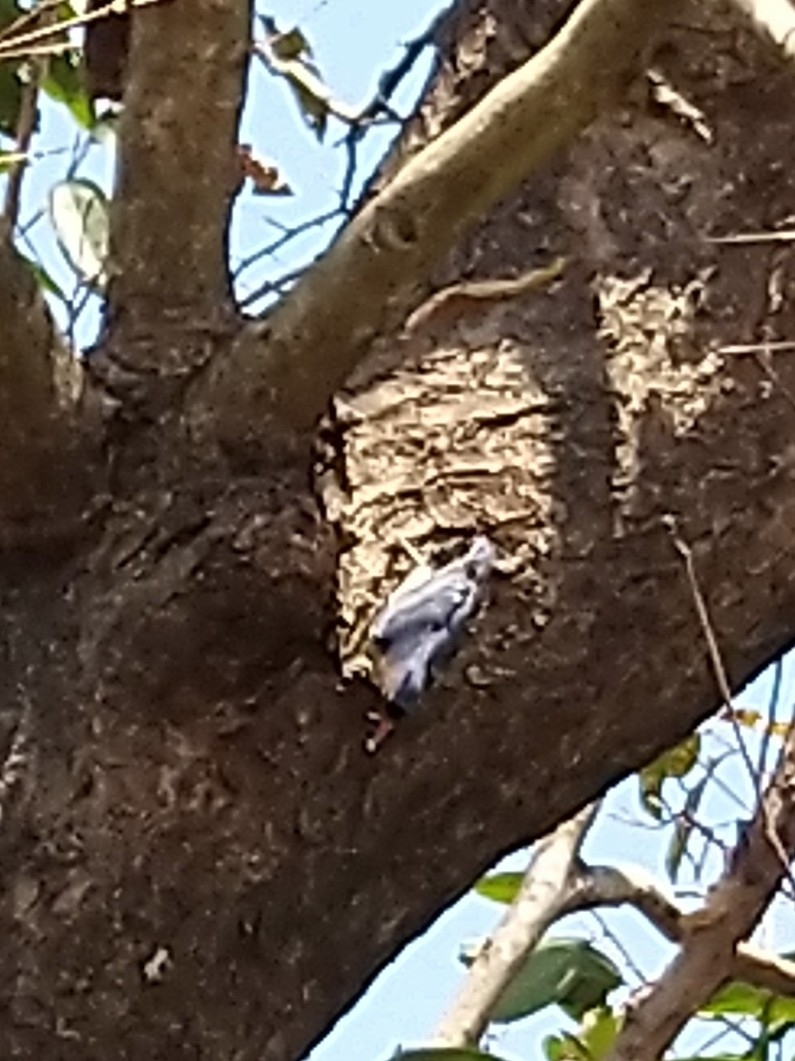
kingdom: Animalia
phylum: Chordata
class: Aves
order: Passeriformes
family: Sittidae
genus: Sitta
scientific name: Sitta frontalis
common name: Velvet-fronted nuthatch
